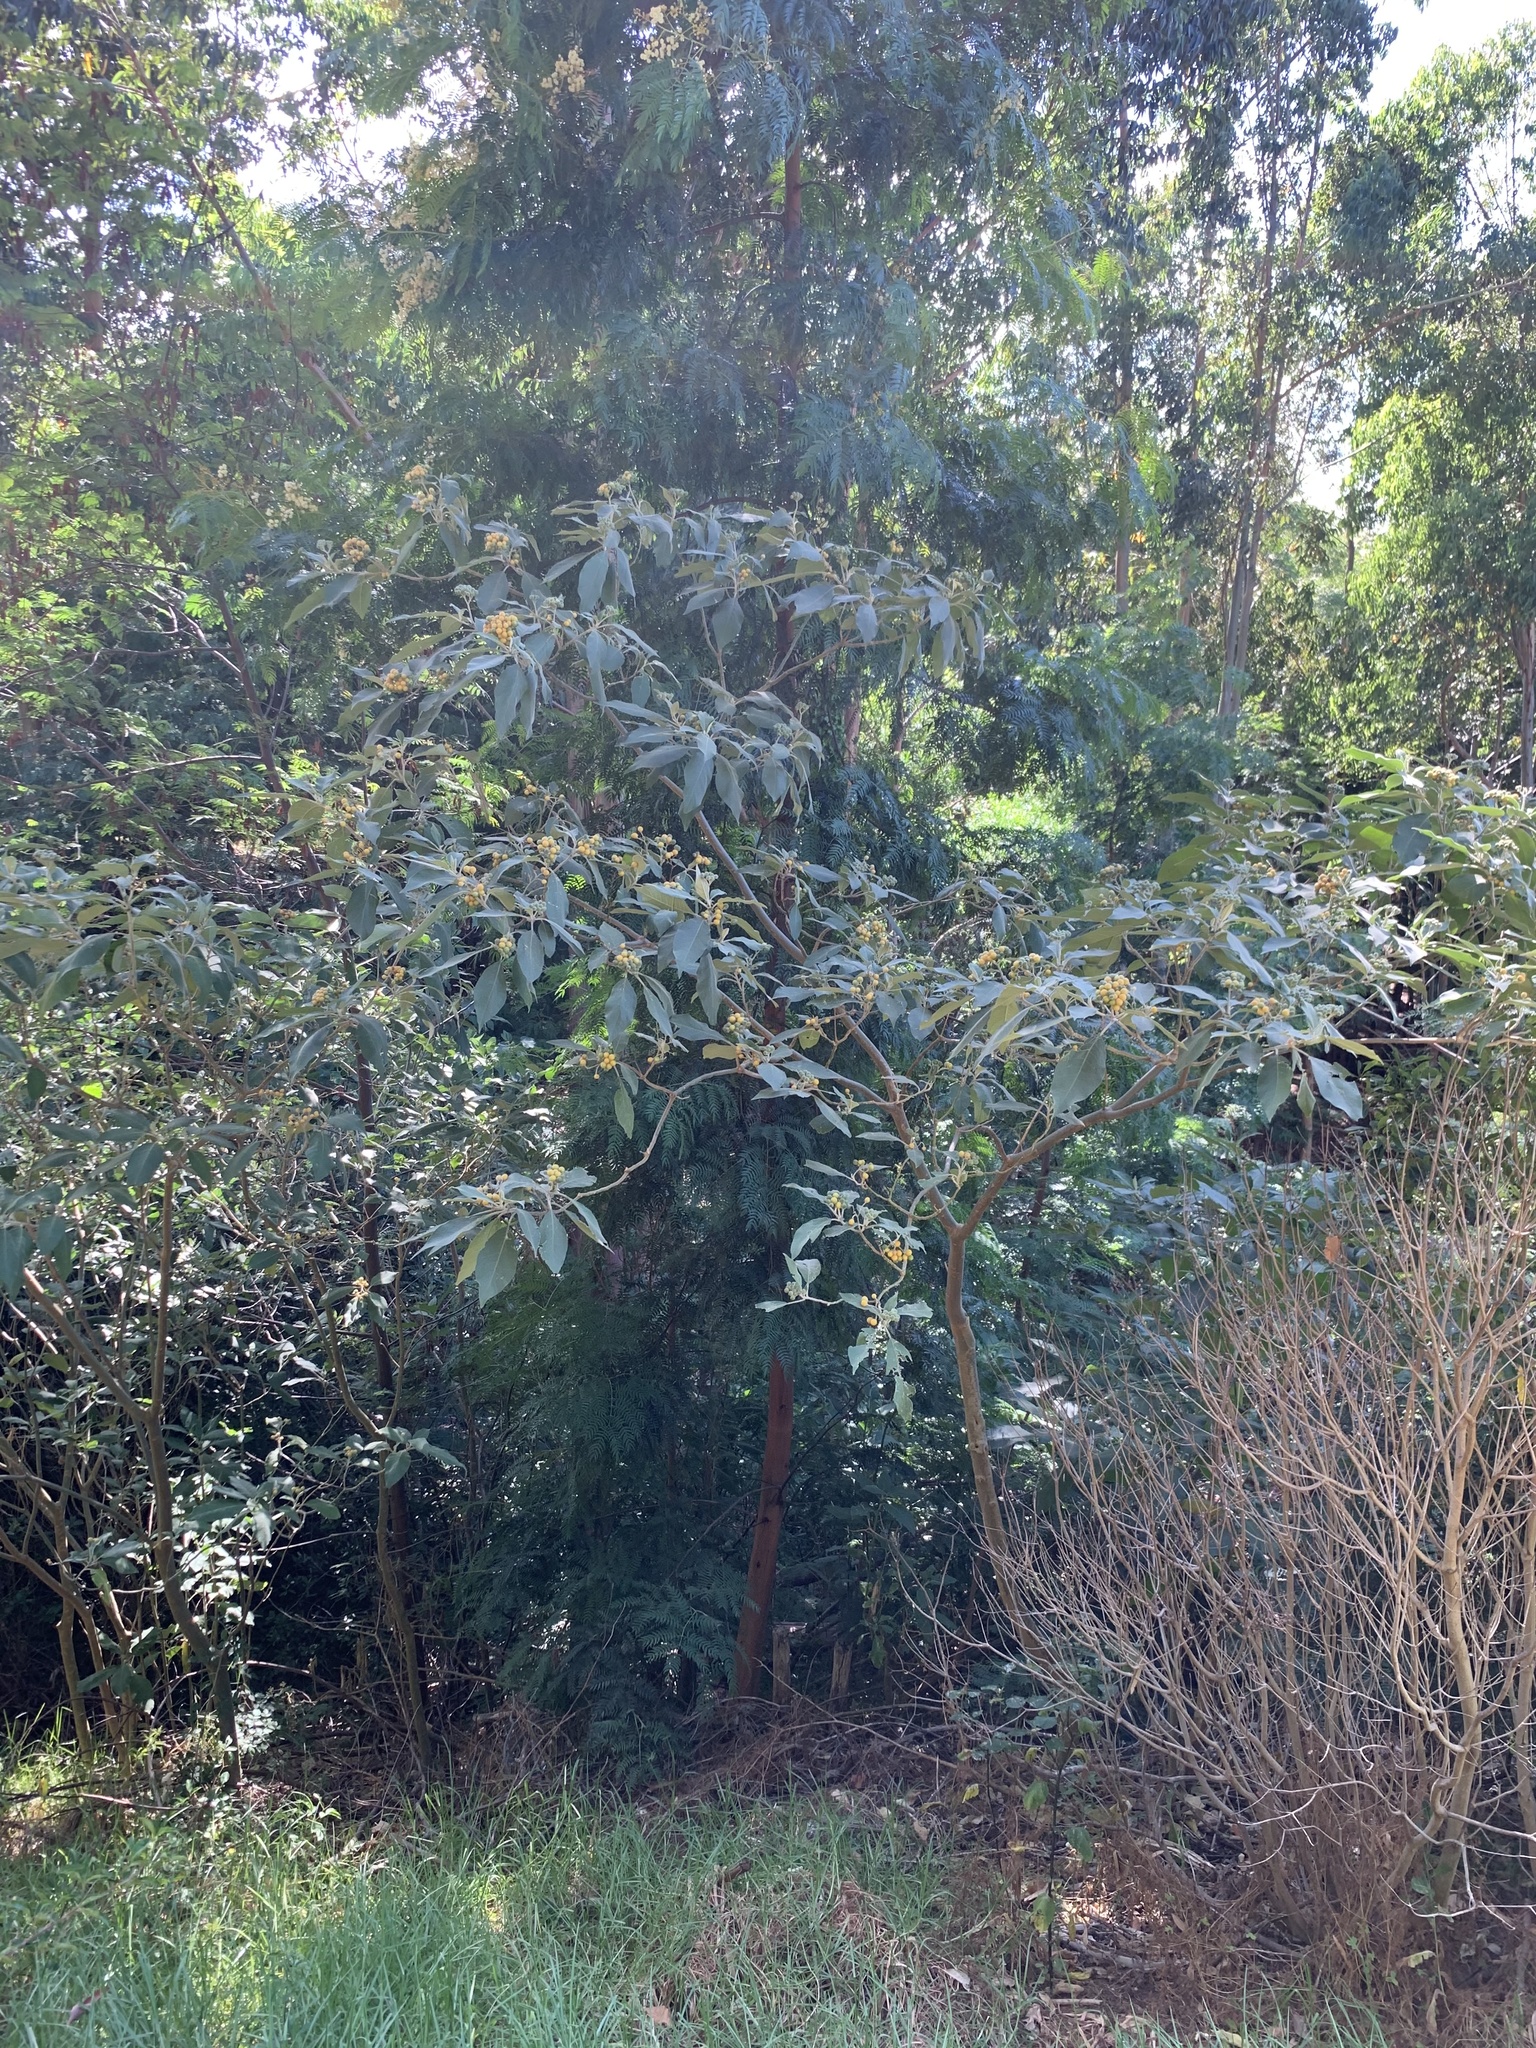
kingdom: Plantae
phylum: Tracheophyta
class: Magnoliopsida
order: Solanales
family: Solanaceae
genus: Solanum
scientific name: Solanum mauritianum
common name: Earleaf nightshade
